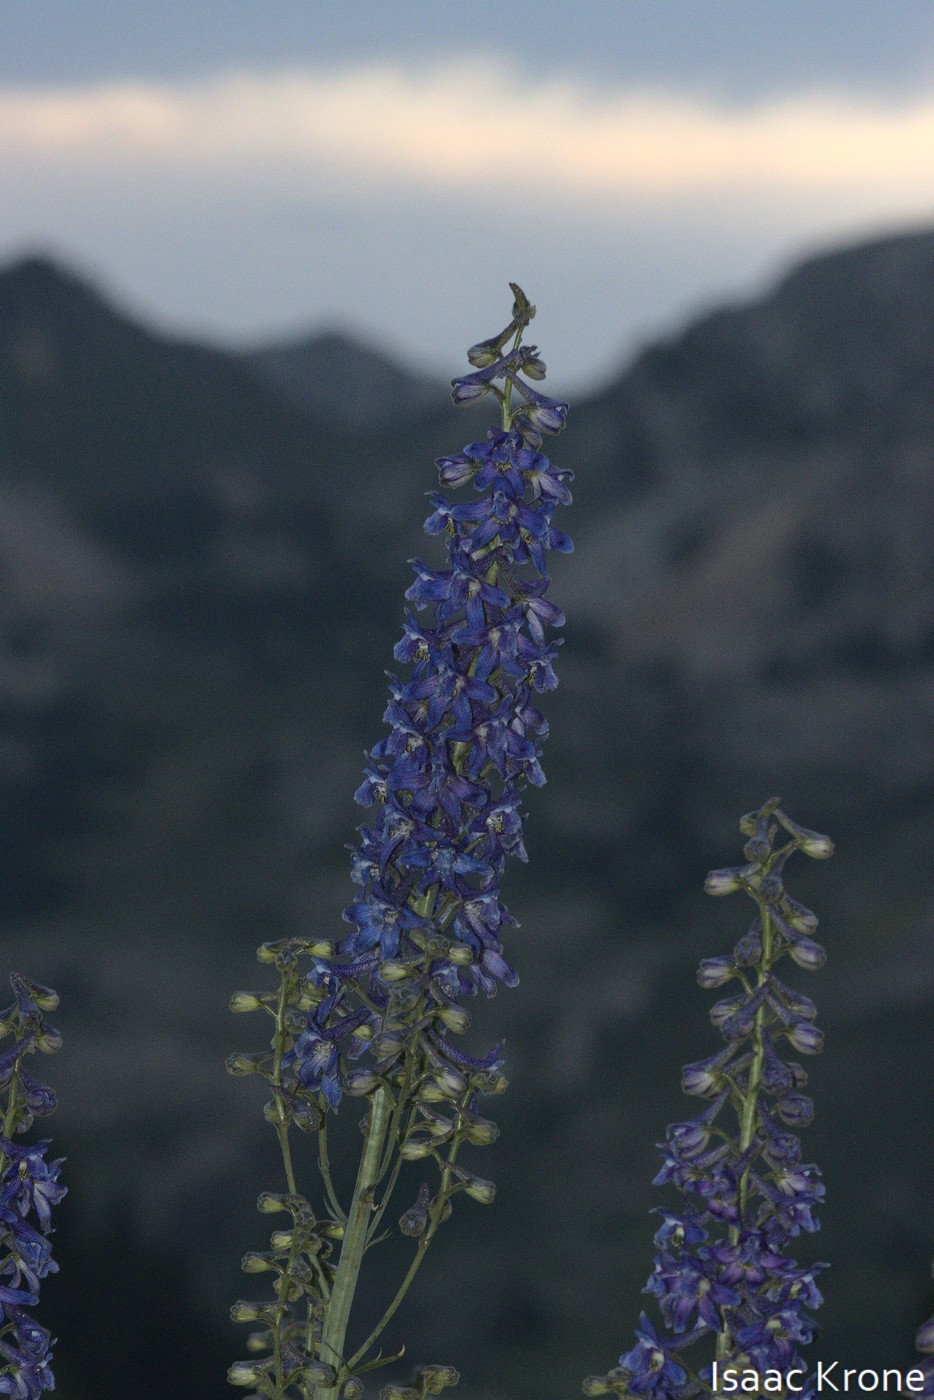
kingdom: Plantae
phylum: Tracheophyta
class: Magnoliopsida
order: Ranunculales
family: Ranunculaceae
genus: Delphinium
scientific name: Delphinium occidentale
